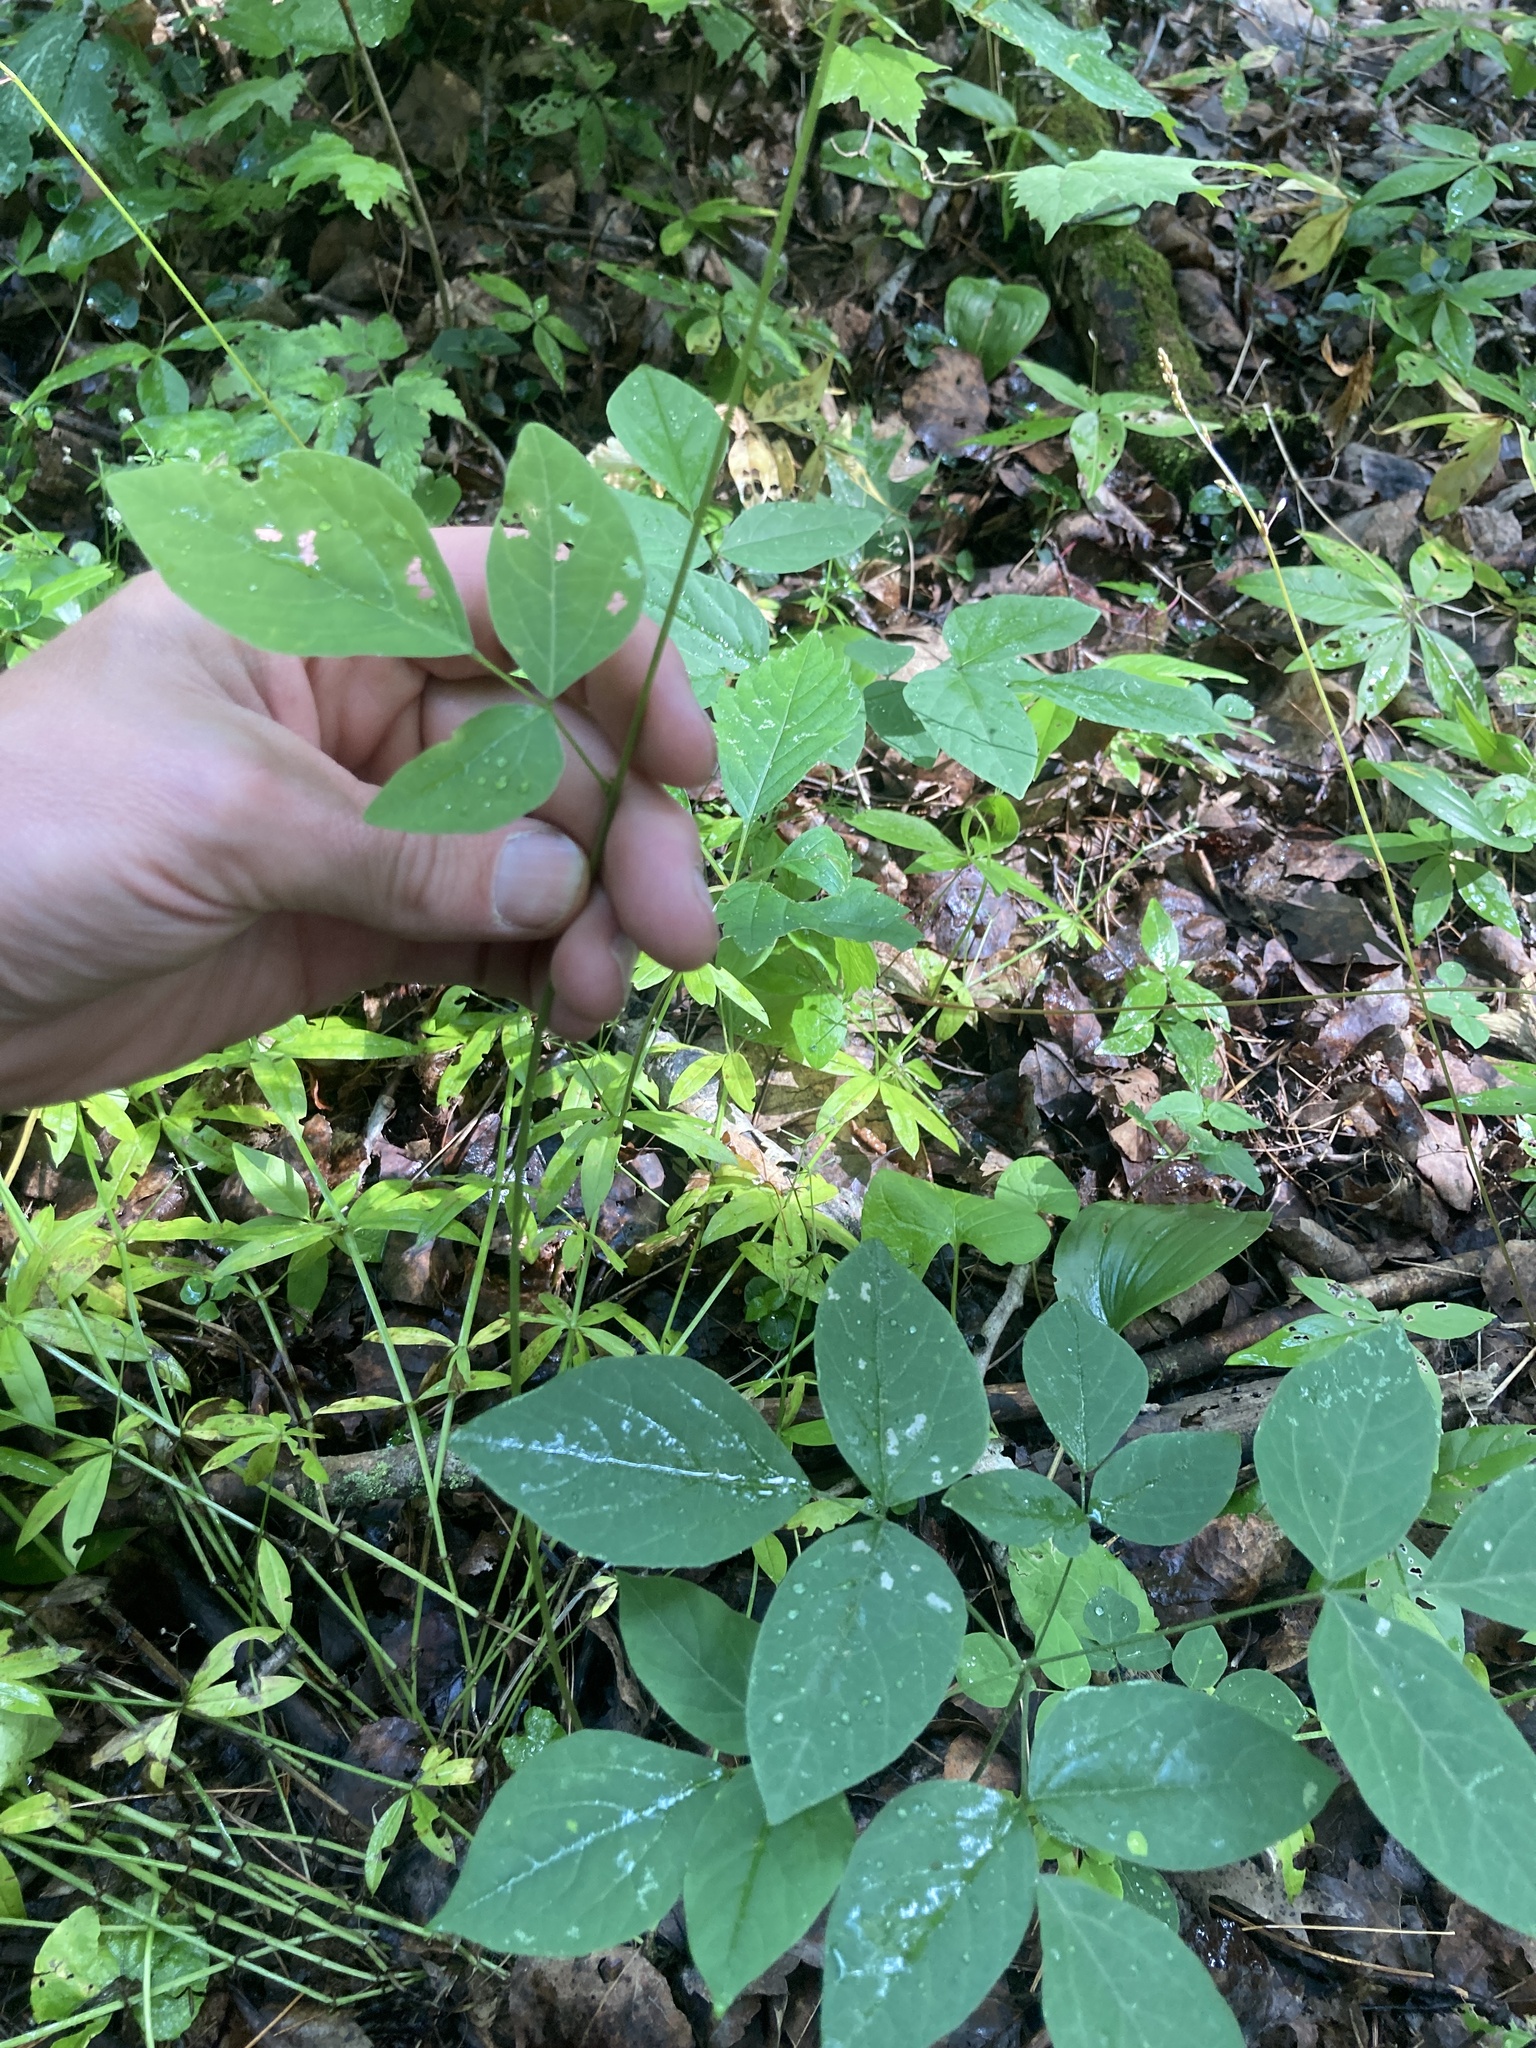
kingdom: Plantae
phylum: Tracheophyta
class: Magnoliopsida
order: Fabales
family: Fabaceae
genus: Hylodesmum
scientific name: Hylodesmum nudiflorum
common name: Bare-stemmed tick-trefoil
